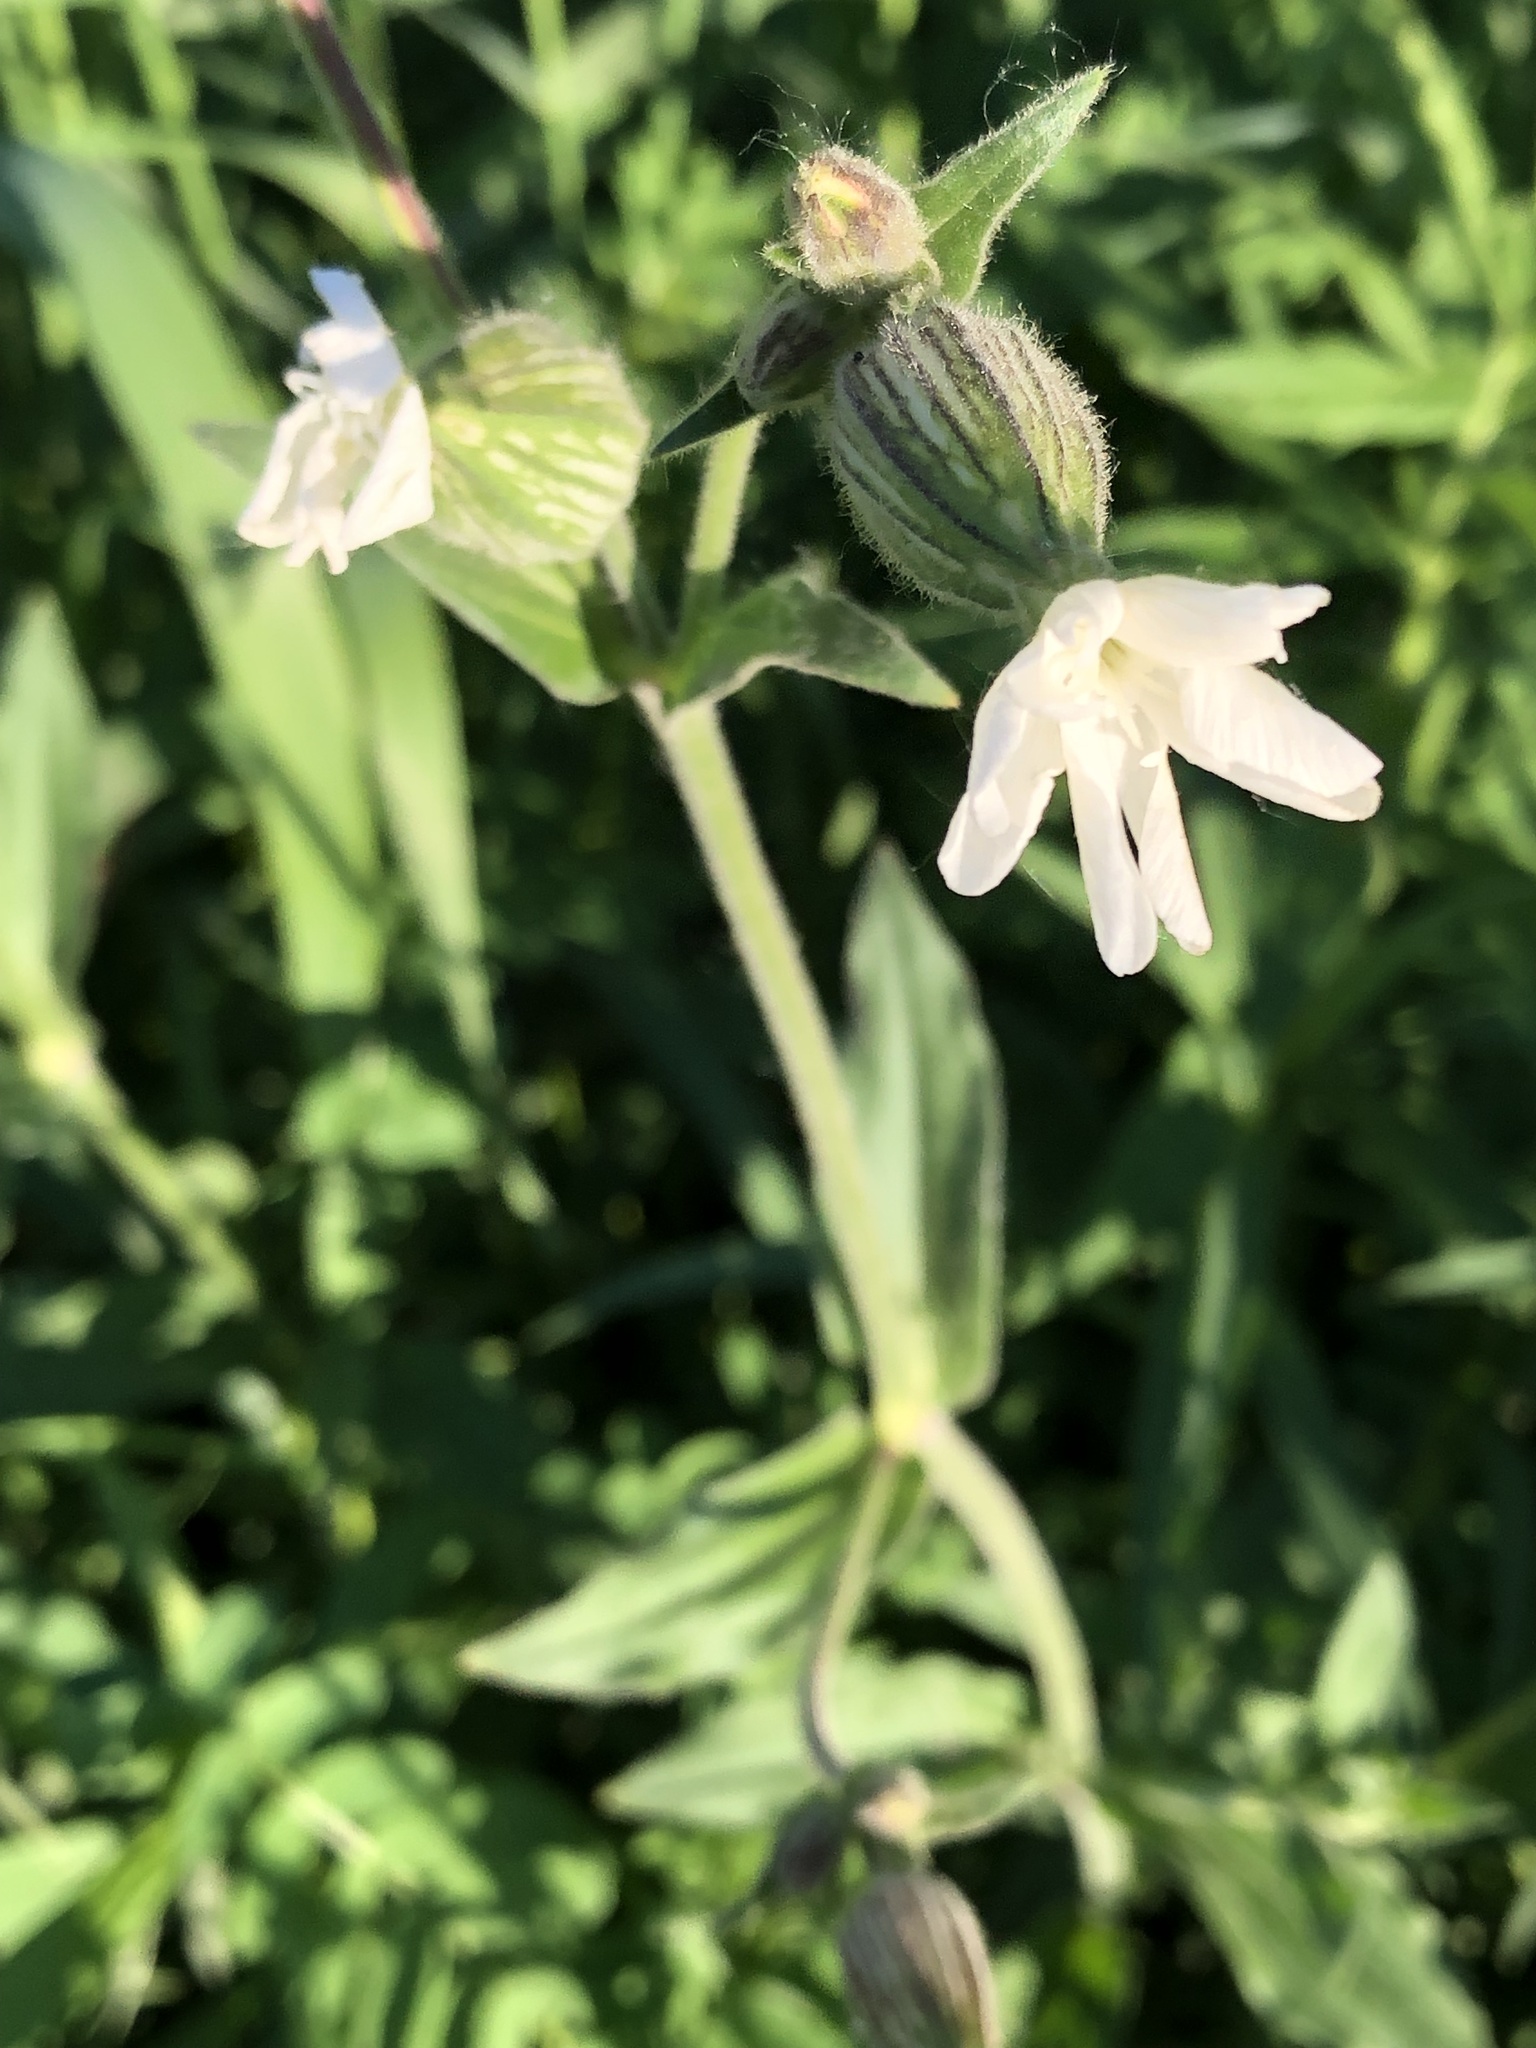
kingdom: Plantae
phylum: Tracheophyta
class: Magnoliopsida
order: Caryophyllales
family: Caryophyllaceae
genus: Silene
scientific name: Silene latifolia
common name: White campion
